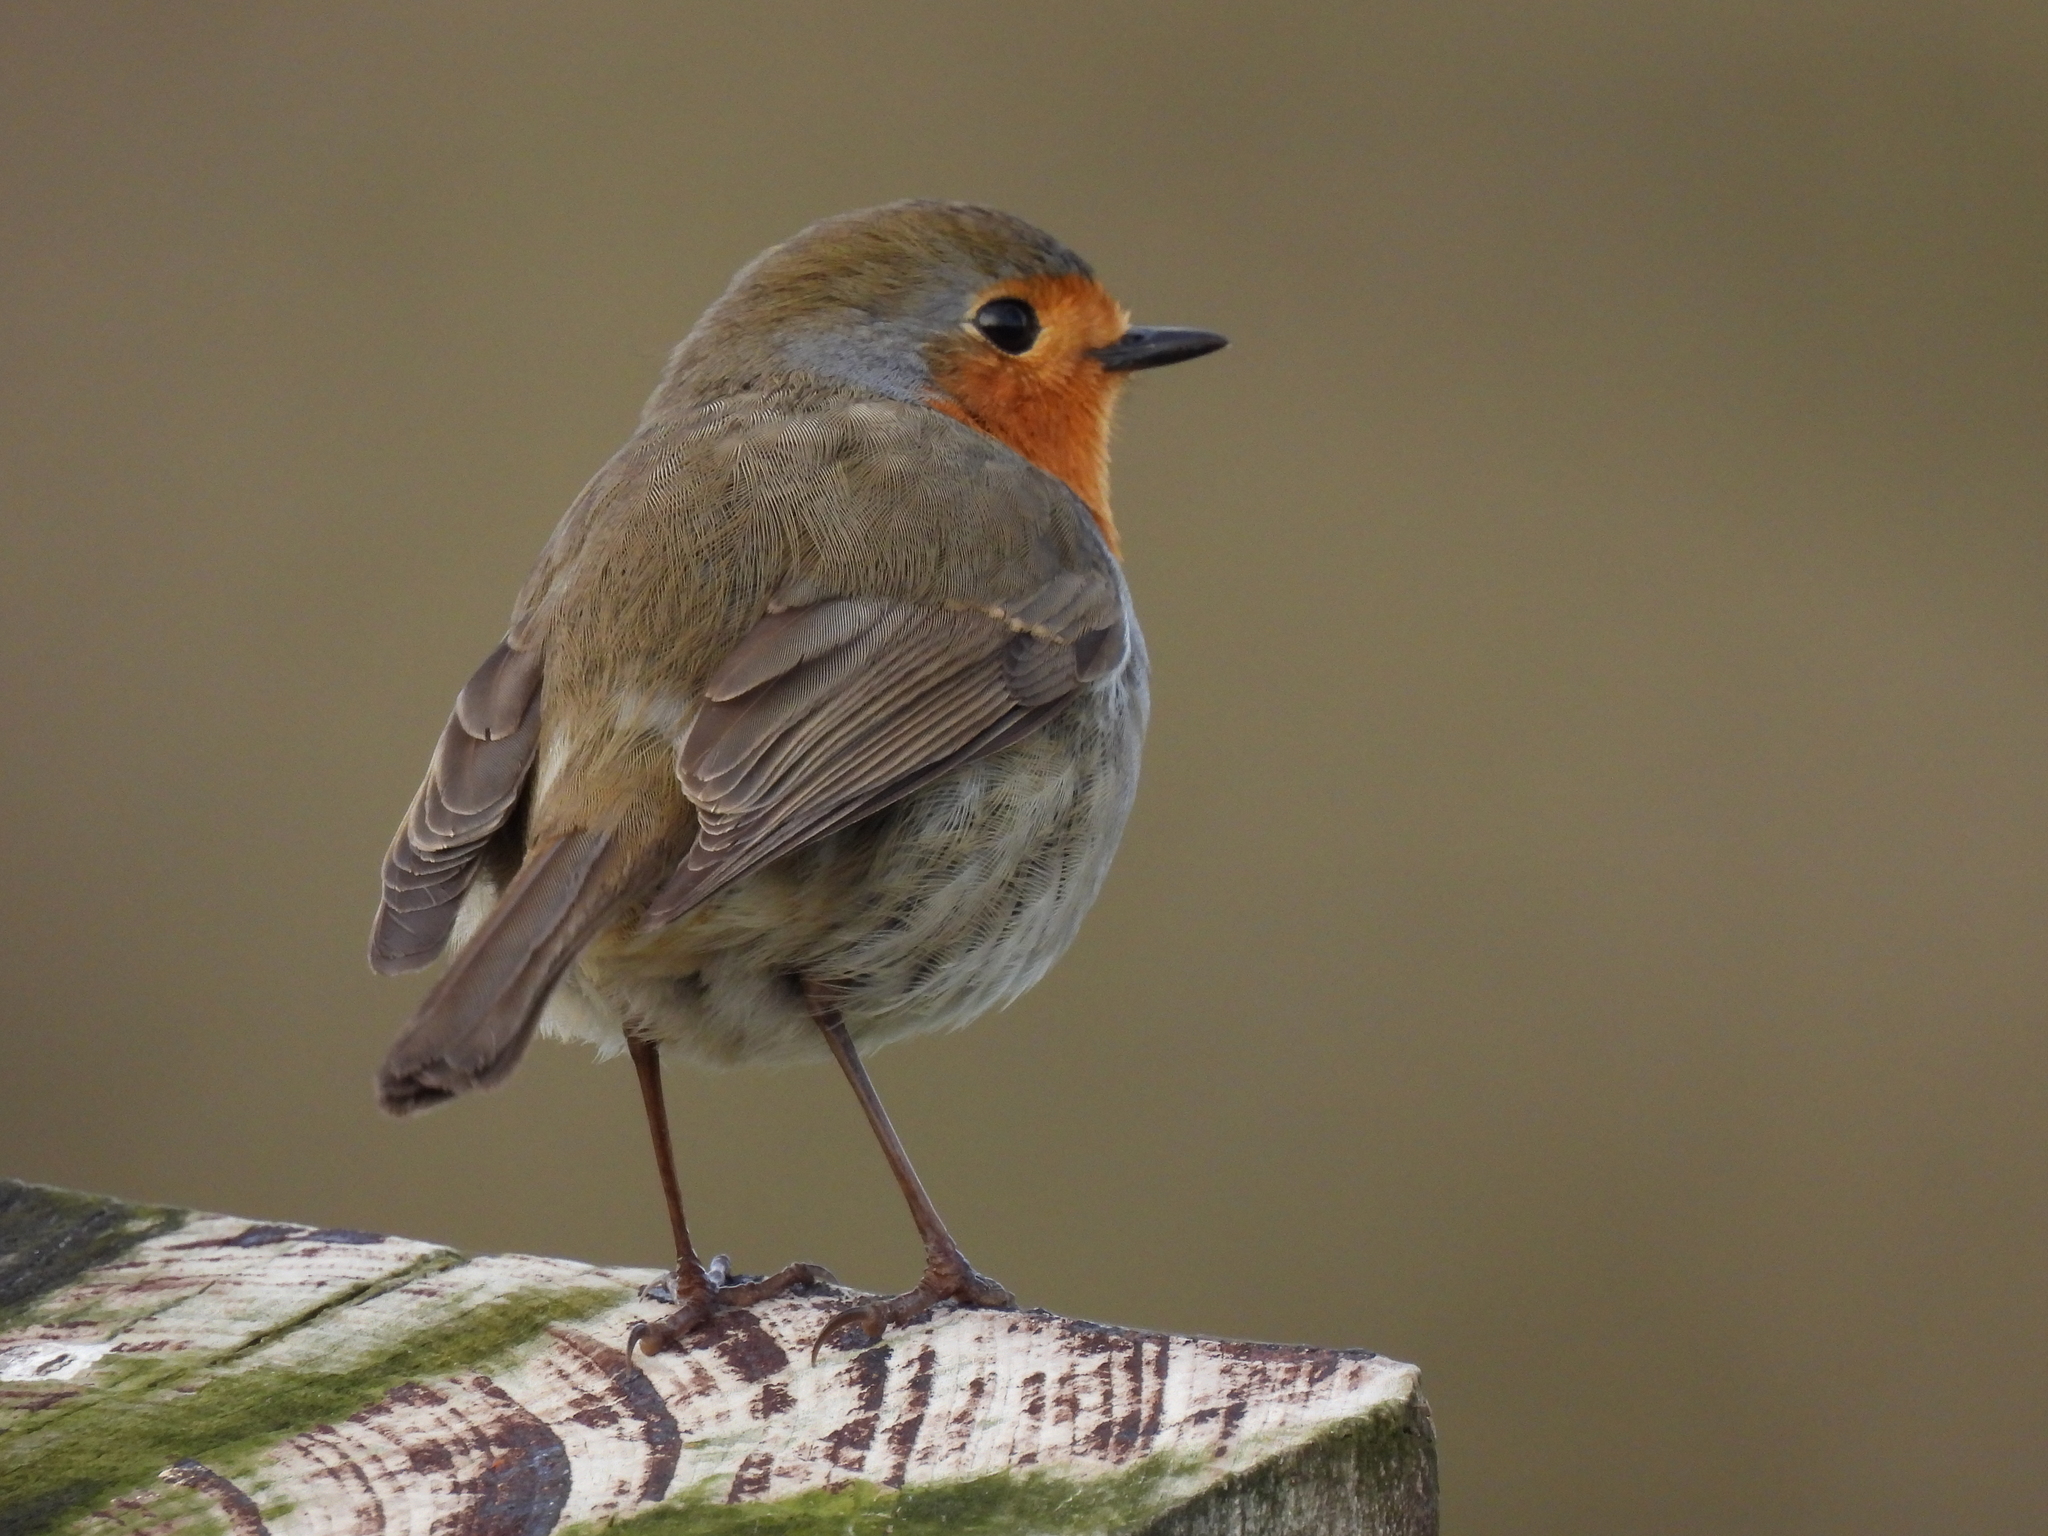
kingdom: Animalia
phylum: Chordata
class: Aves
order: Passeriformes
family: Muscicapidae
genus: Erithacus
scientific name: Erithacus rubecula
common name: European robin
